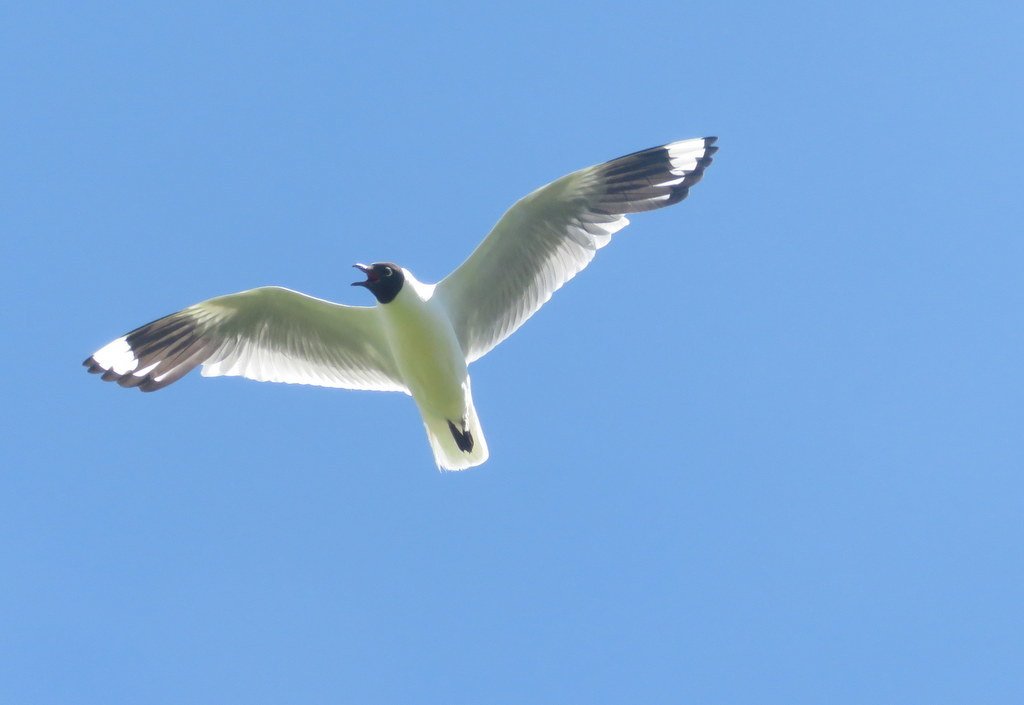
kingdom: Animalia
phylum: Chordata
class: Aves
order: Charadriiformes
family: Laridae
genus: Chroicocephalus
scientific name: Chroicocephalus serranus
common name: Andean gull
